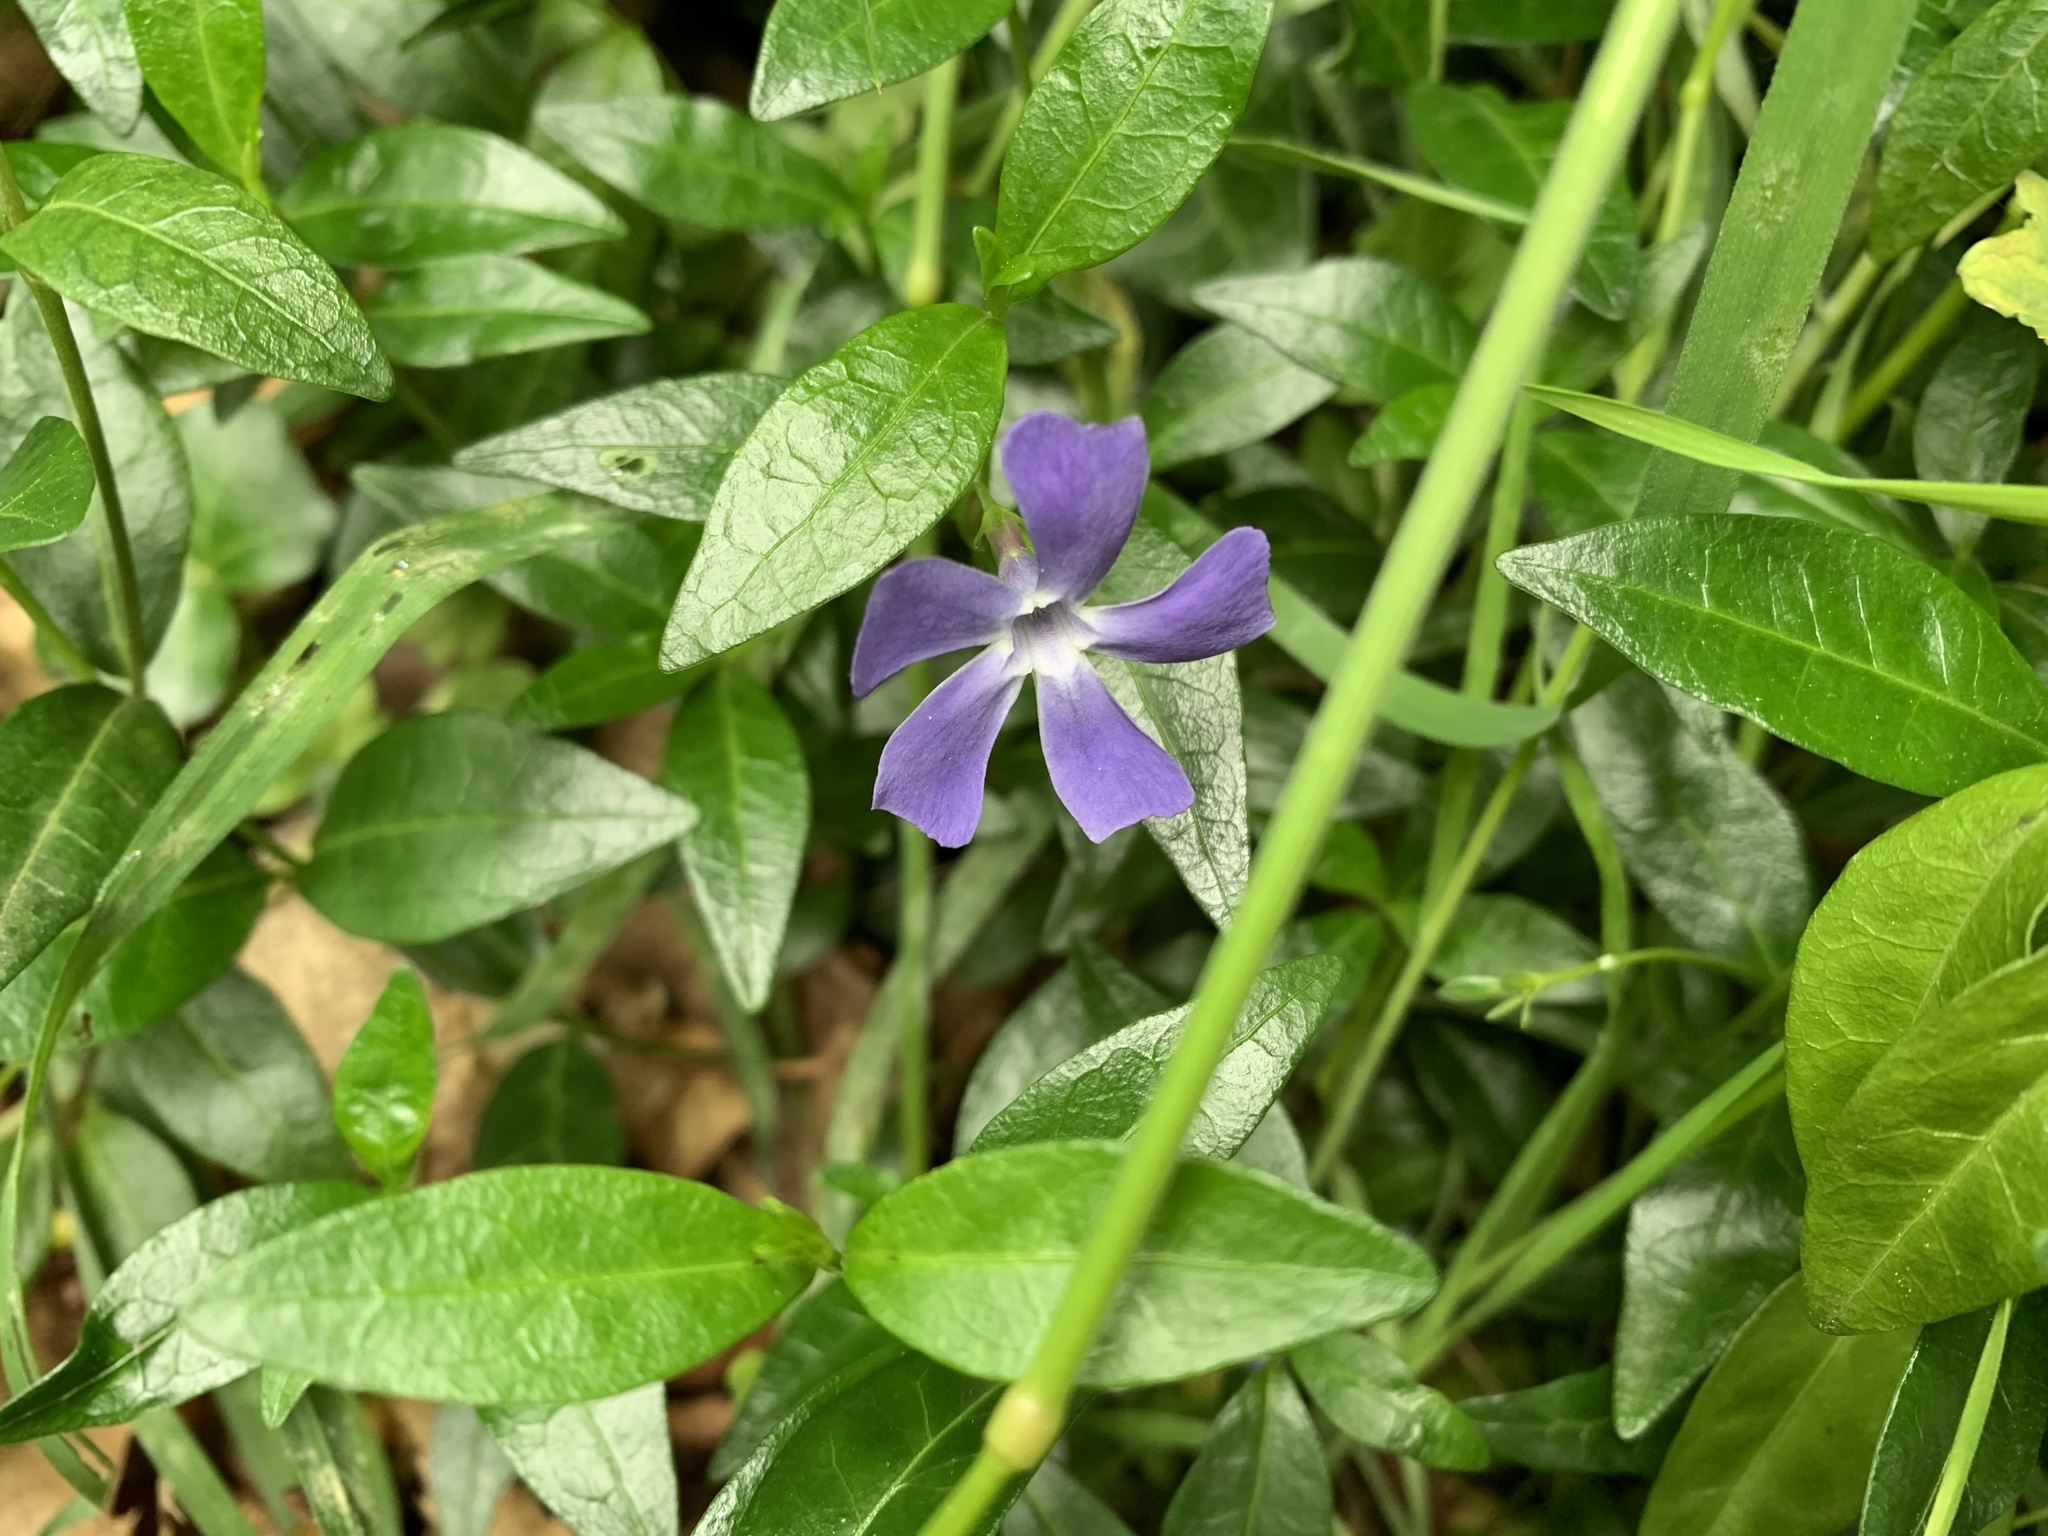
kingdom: Plantae
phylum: Tracheophyta
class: Magnoliopsida
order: Gentianales
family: Apocynaceae
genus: Vinca
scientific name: Vinca minor
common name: Lesser periwinkle
